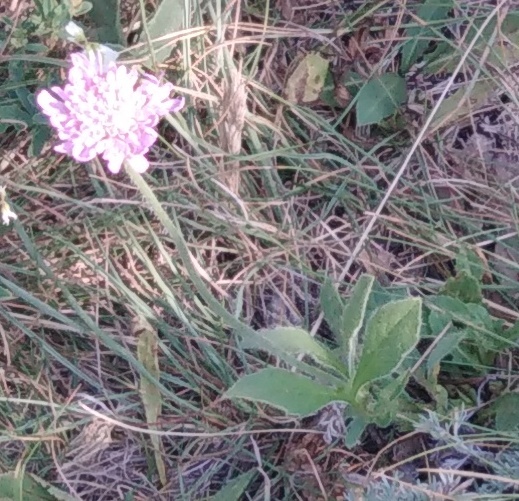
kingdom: Plantae
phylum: Tracheophyta
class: Magnoliopsida
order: Dipsacales
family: Caprifoliaceae
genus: Knautia
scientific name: Knautia arvensis
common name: Field scabiosa
